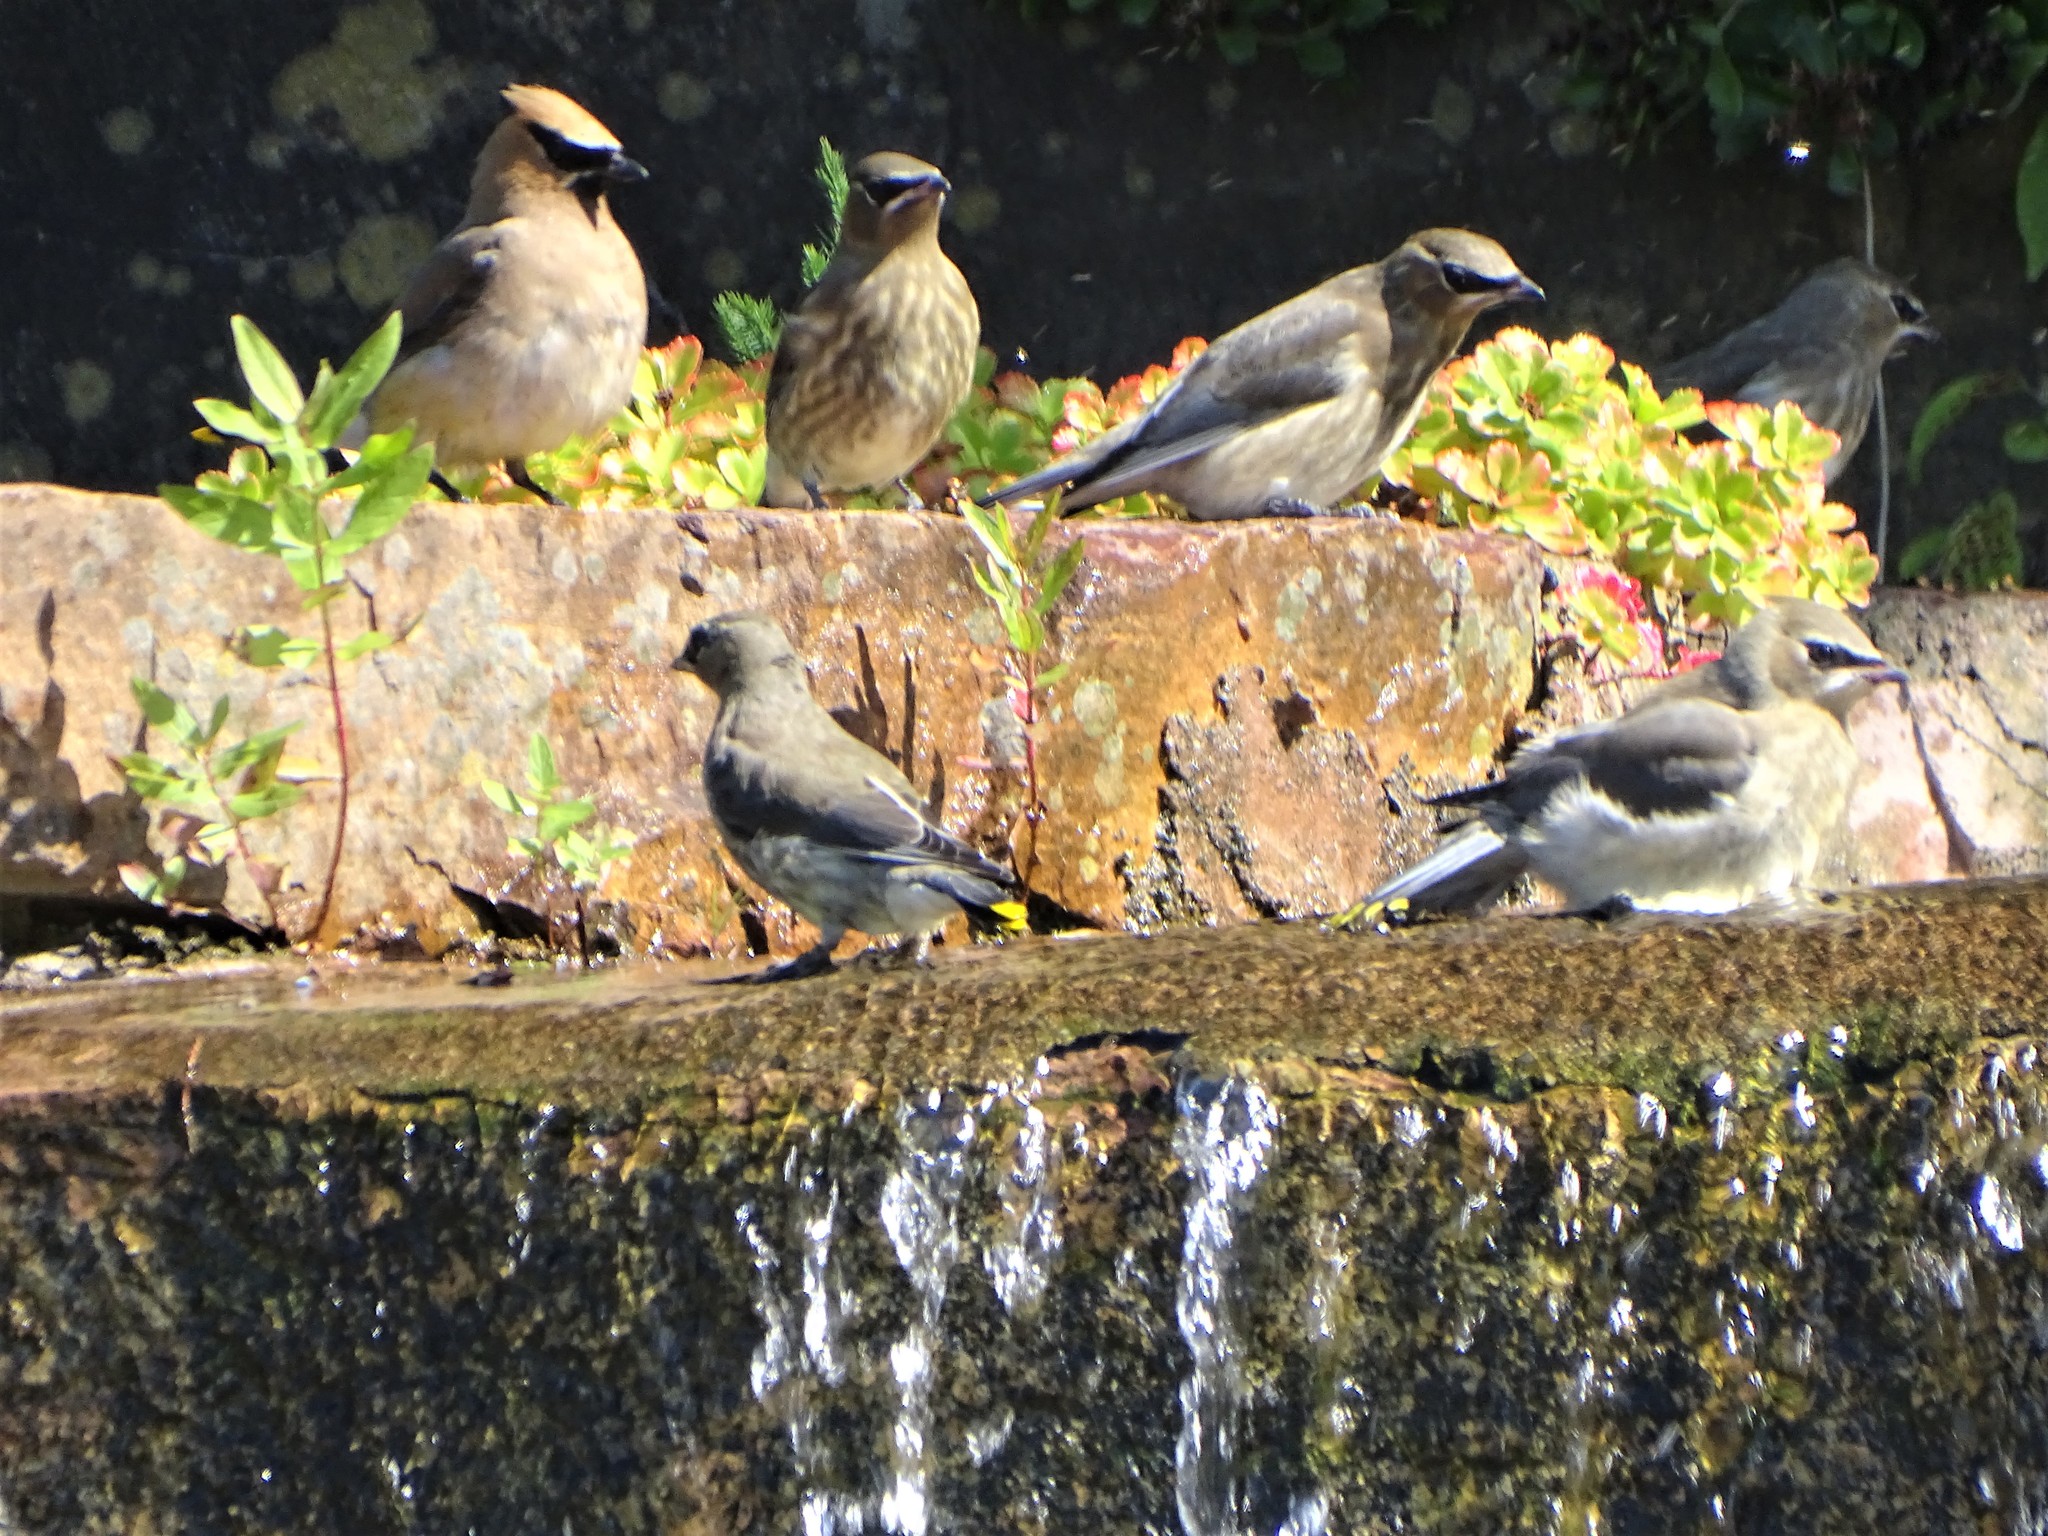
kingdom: Animalia
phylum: Chordata
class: Aves
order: Passeriformes
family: Bombycillidae
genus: Bombycilla
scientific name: Bombycilla cedrorum
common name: Cedar waxwing
